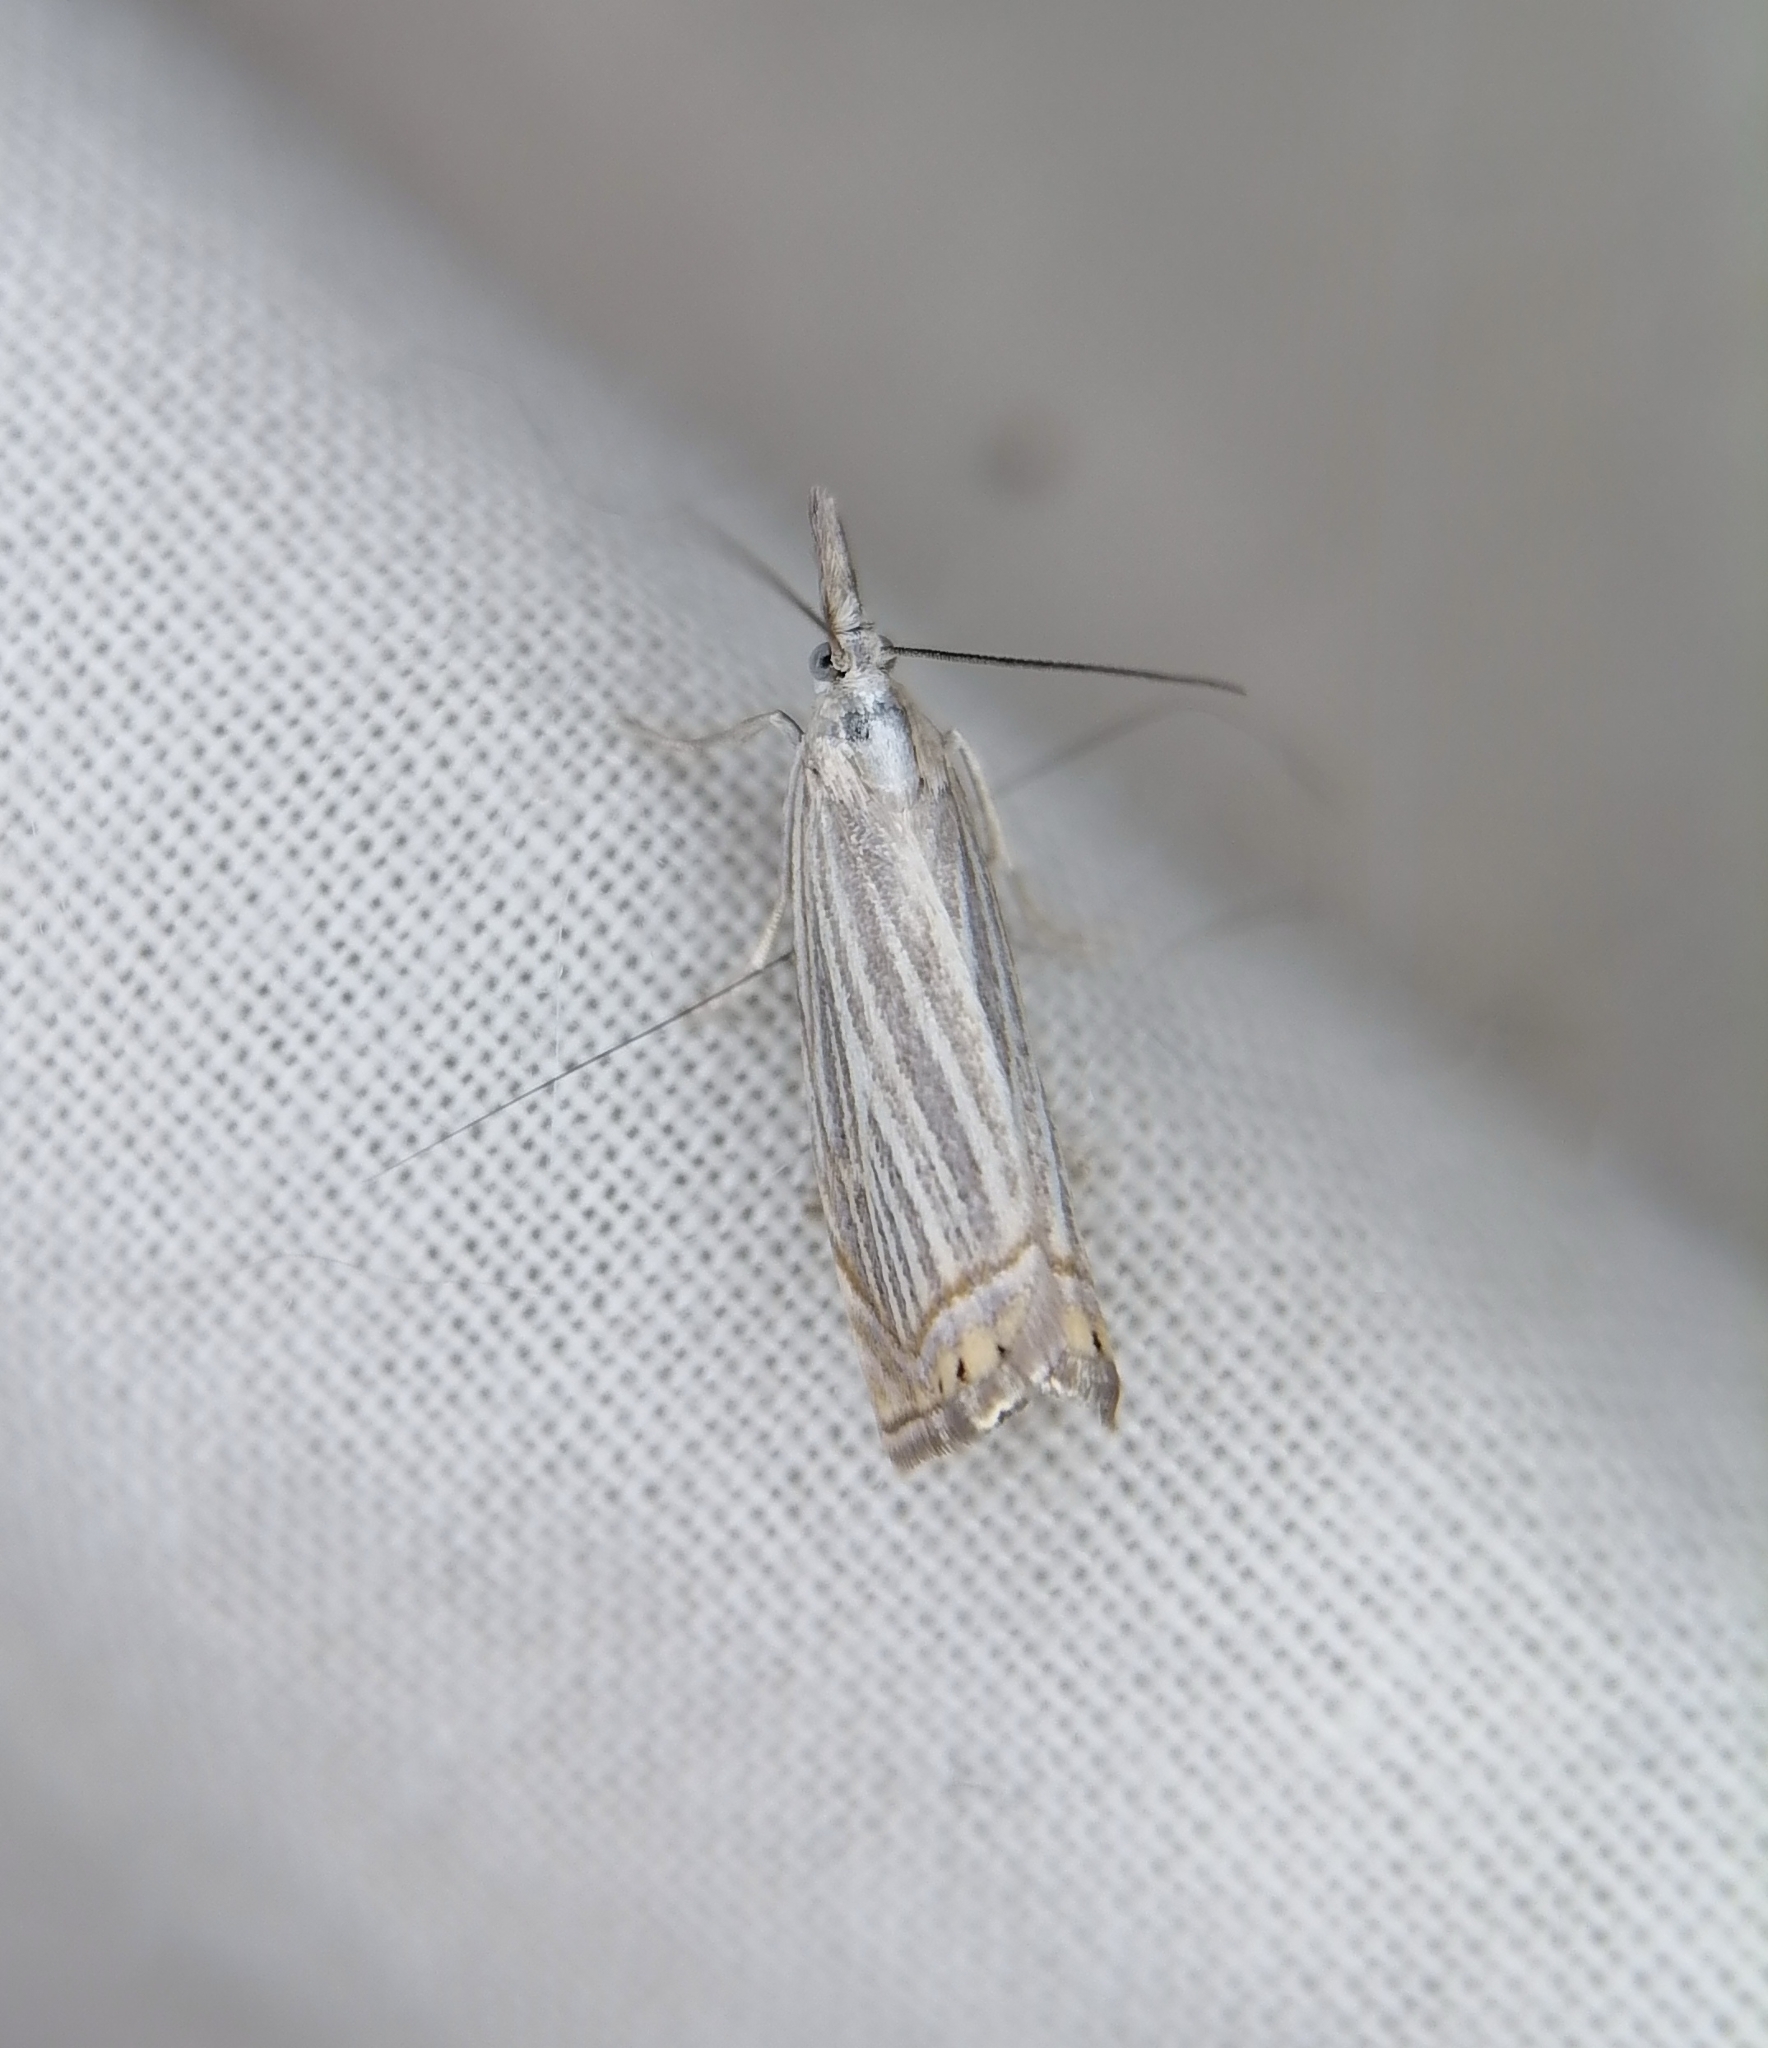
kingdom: Animalia
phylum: Arthropoda
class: Insecta
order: Lepidoptera
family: Crambidae
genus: Chrysoteuchia
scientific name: Chrysoteuchia culmella
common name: Garden grass-veneer
